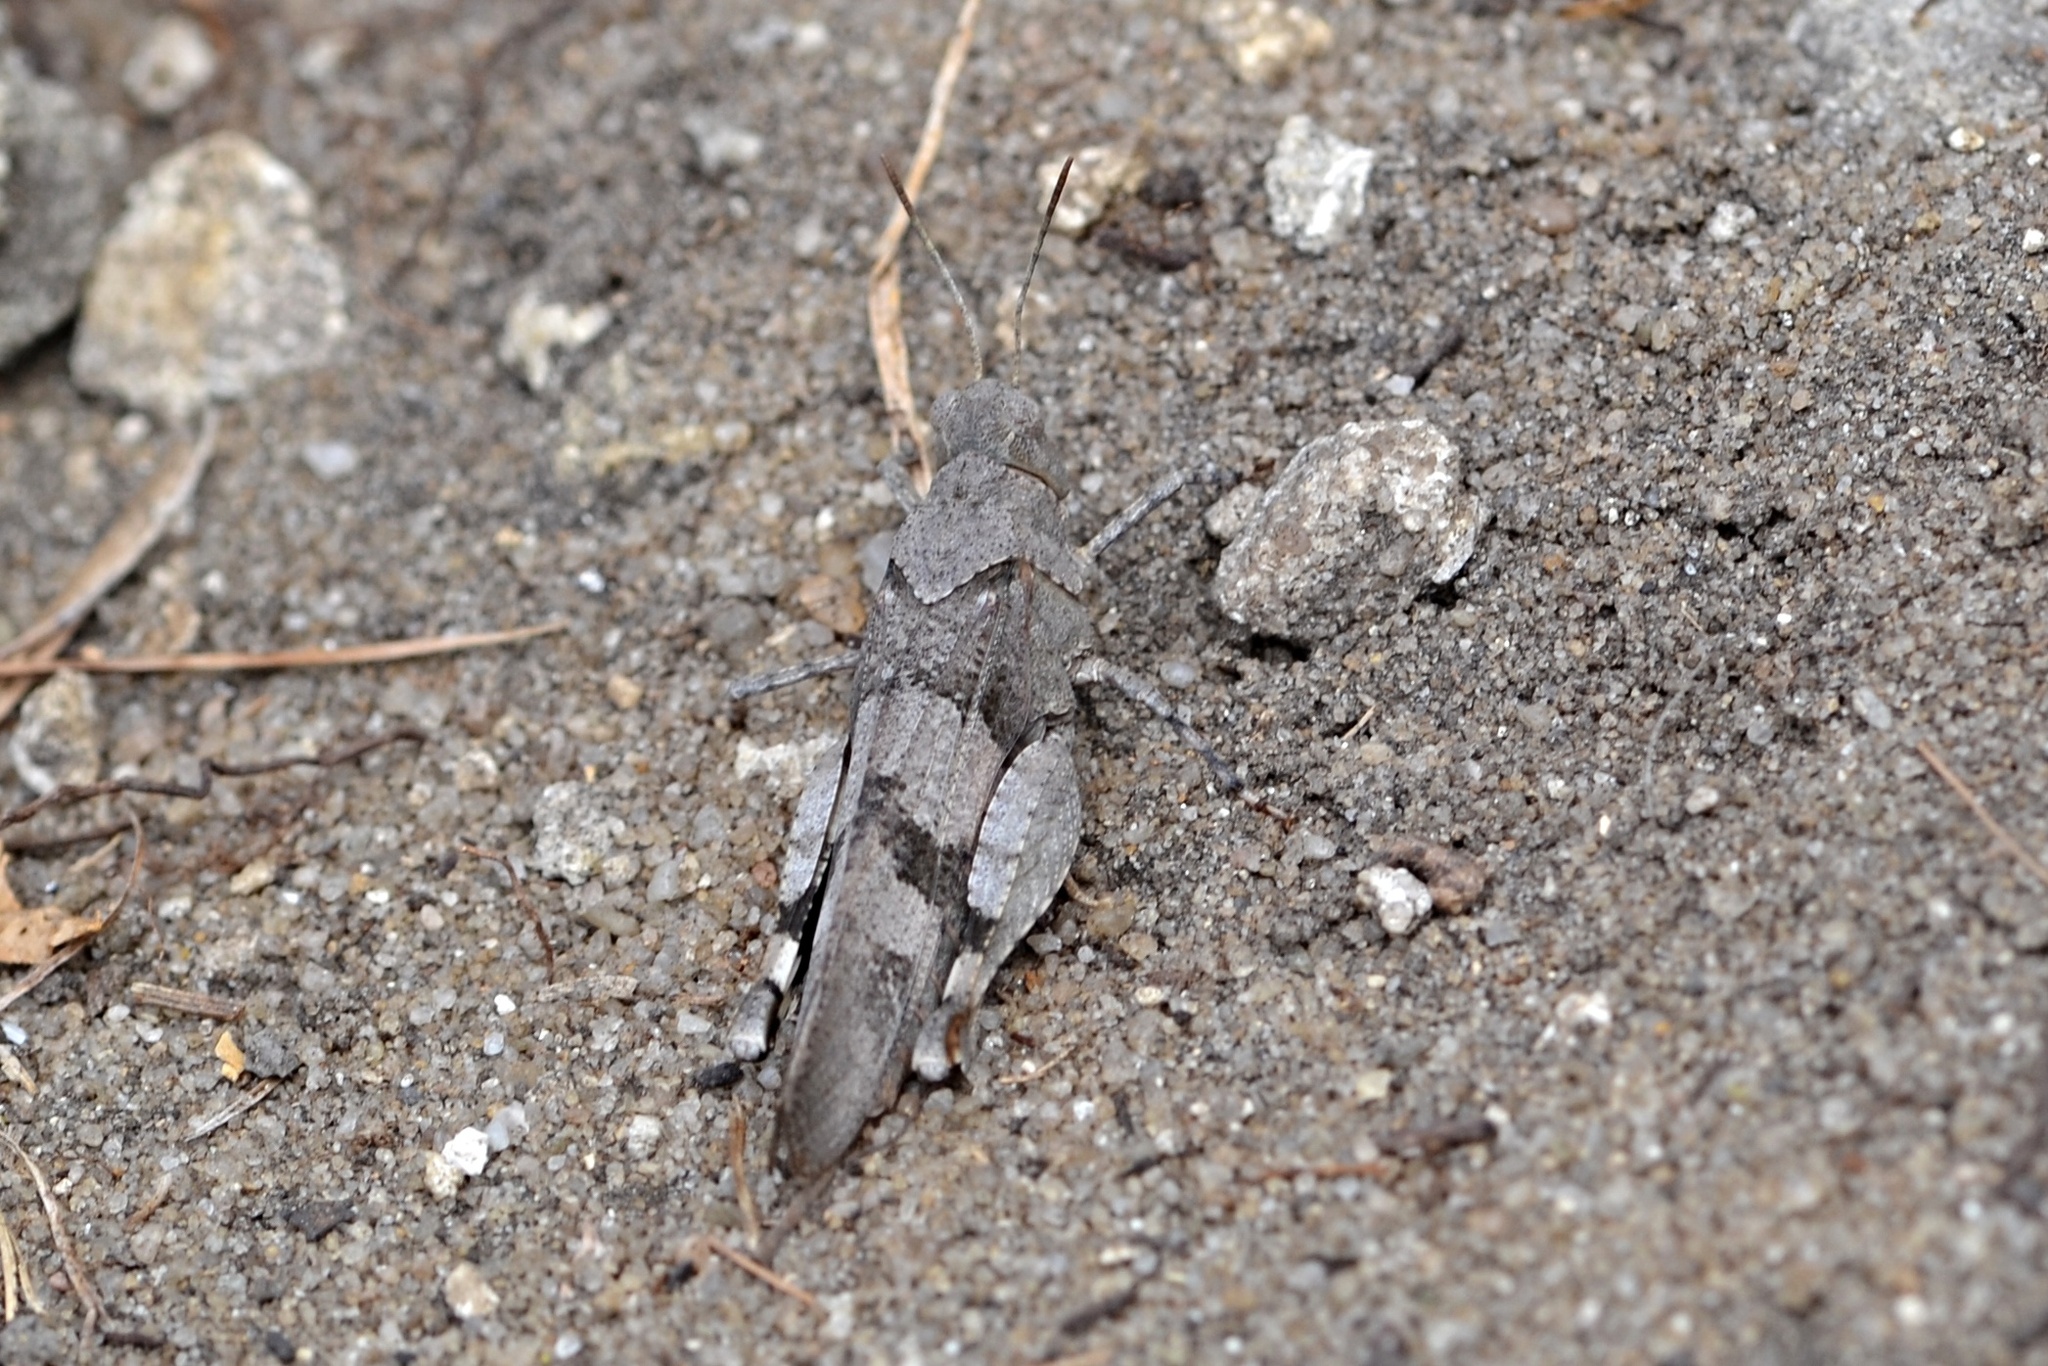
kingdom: Animalia
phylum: Arthropoda
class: Insecta
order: Orthoptera
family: Acrididae
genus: Oedipoda
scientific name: Oedipoda caerulescens
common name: Blue-winged grasshopper
